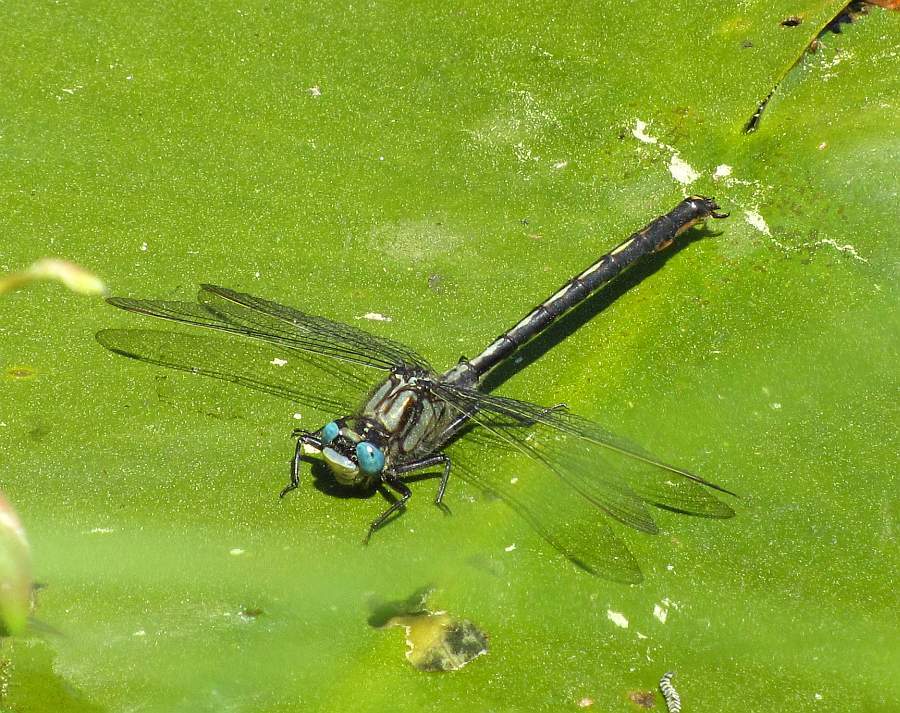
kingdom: Animalia
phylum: Arthropoda
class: Insecta
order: Odonata
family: Gomphidae
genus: Arigomphus
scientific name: Arigomphus cornutus
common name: Horned clubtail
